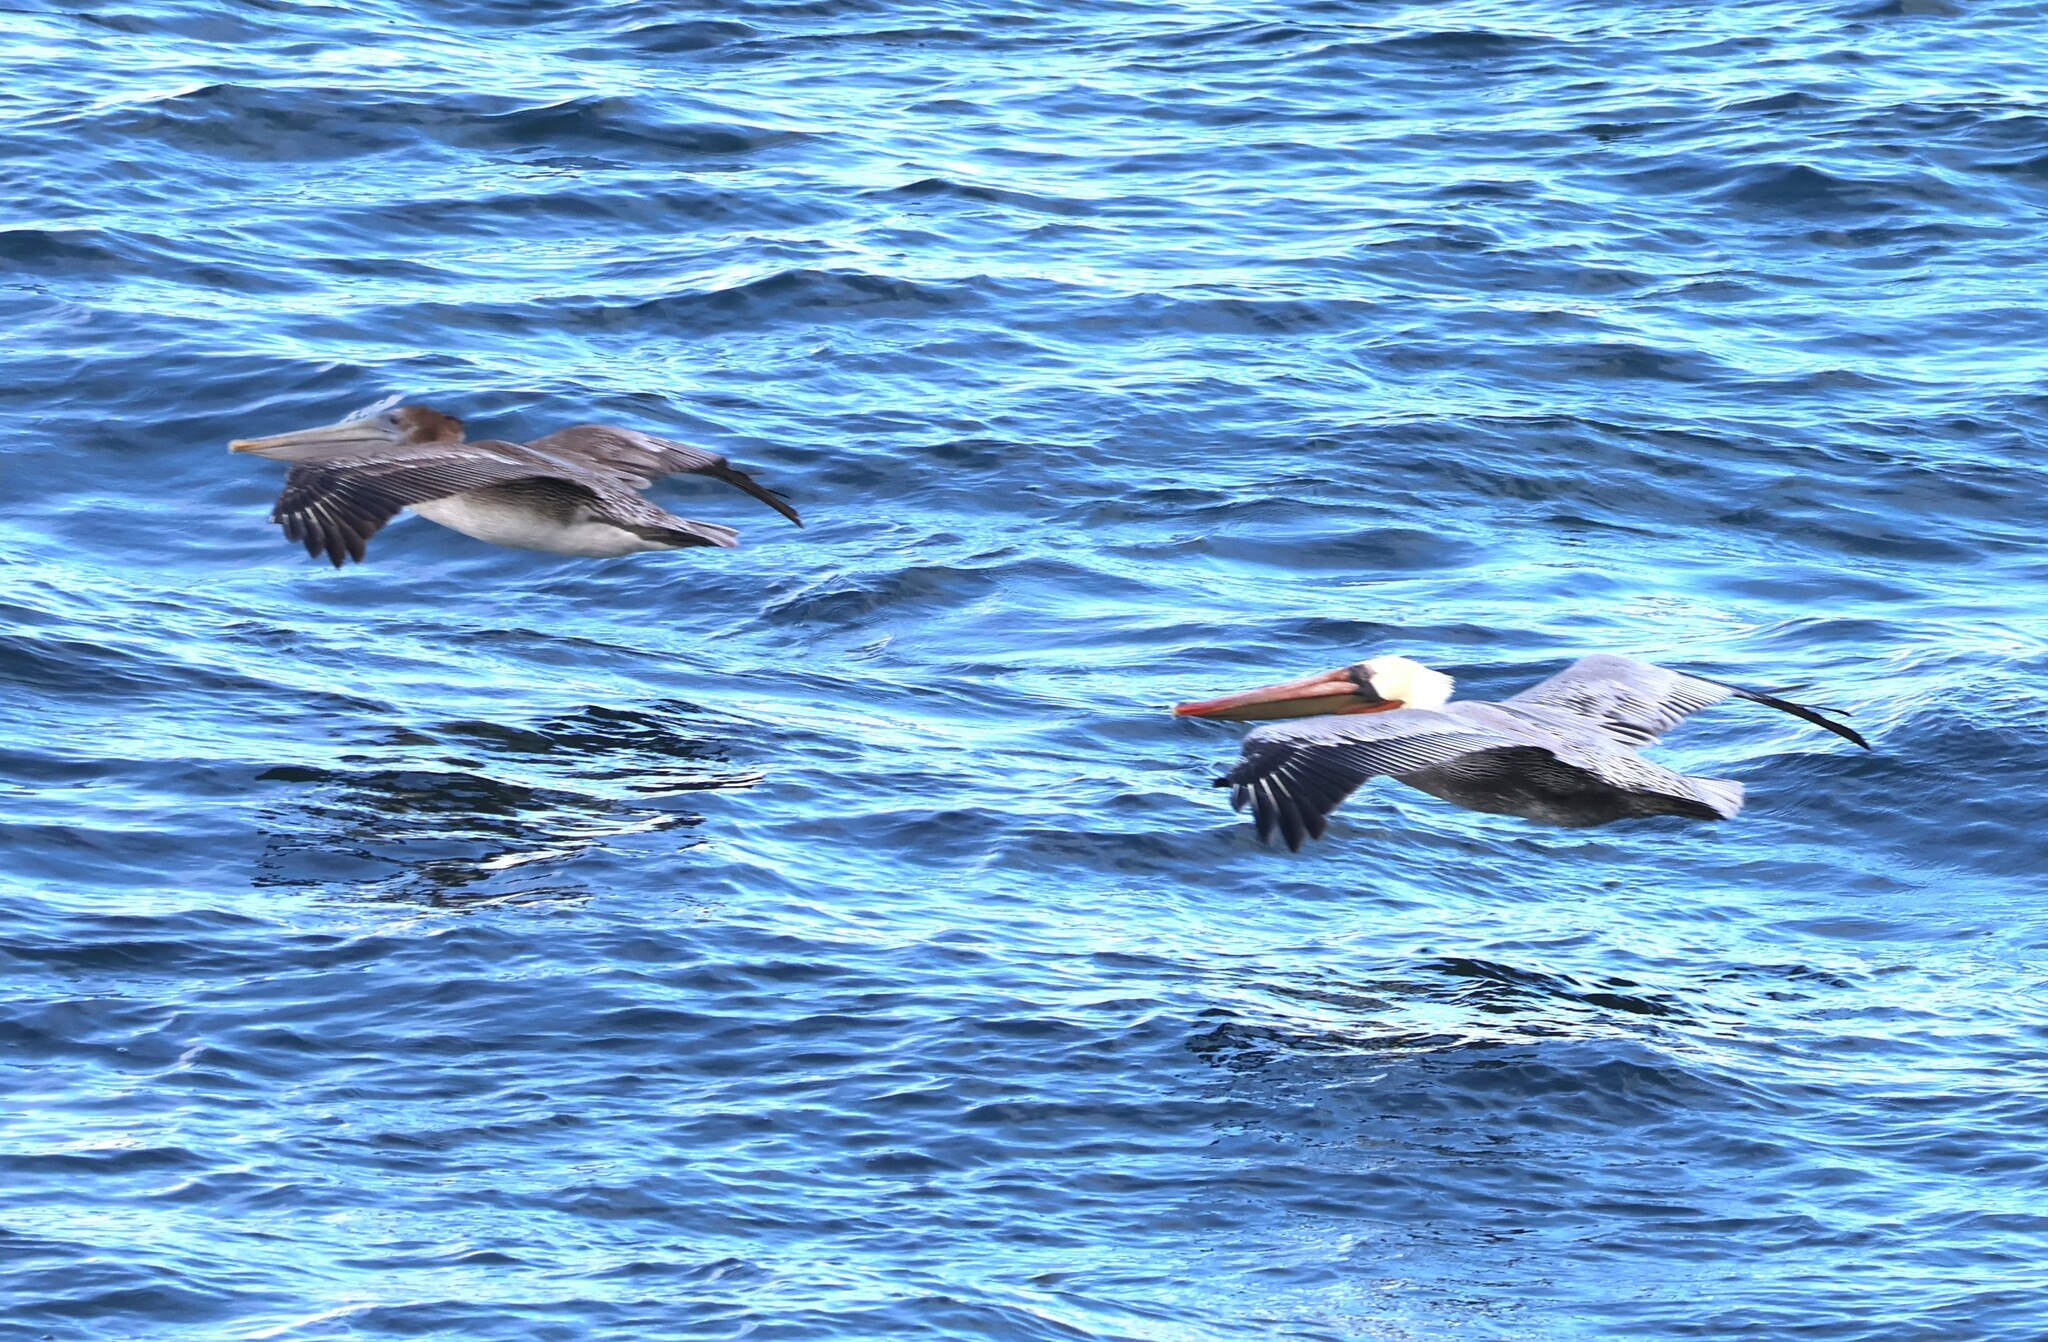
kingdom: Animalia
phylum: Chordata
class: Aves
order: Pelecaniformes
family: Pelecanidae
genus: Pelecanus
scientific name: Pelecanus occidentalis
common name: Brown pelican
